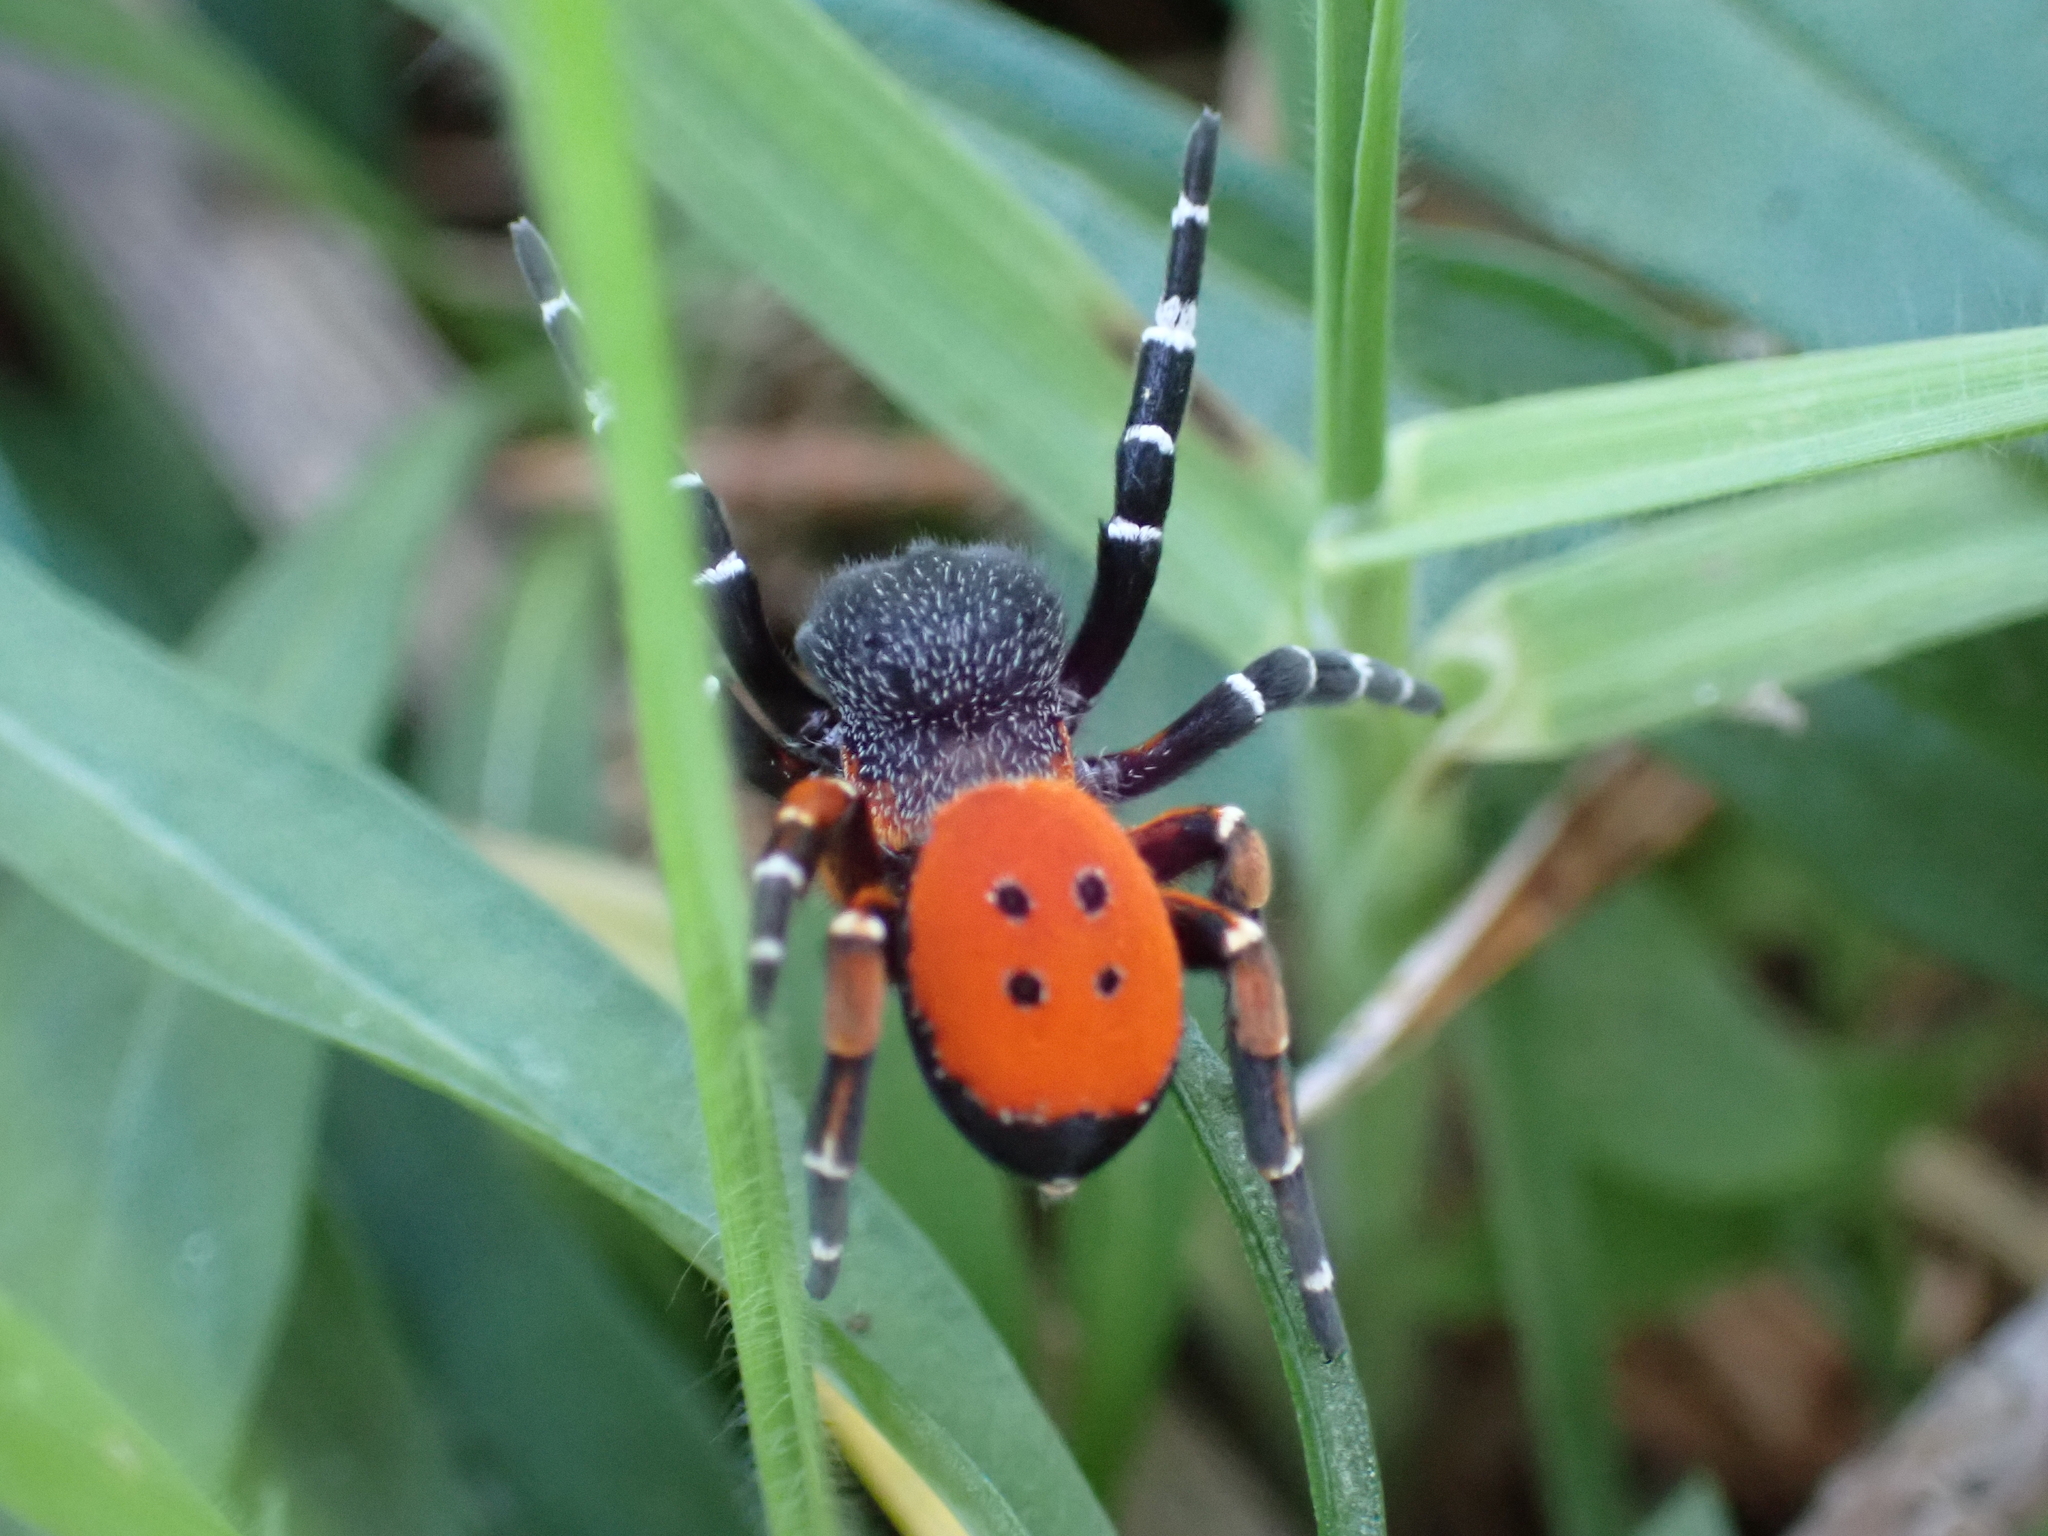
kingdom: Animalia
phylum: Arthropoda
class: Arachnida
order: Araneae
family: Eresidae
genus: Eresus
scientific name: Eresus kollari
